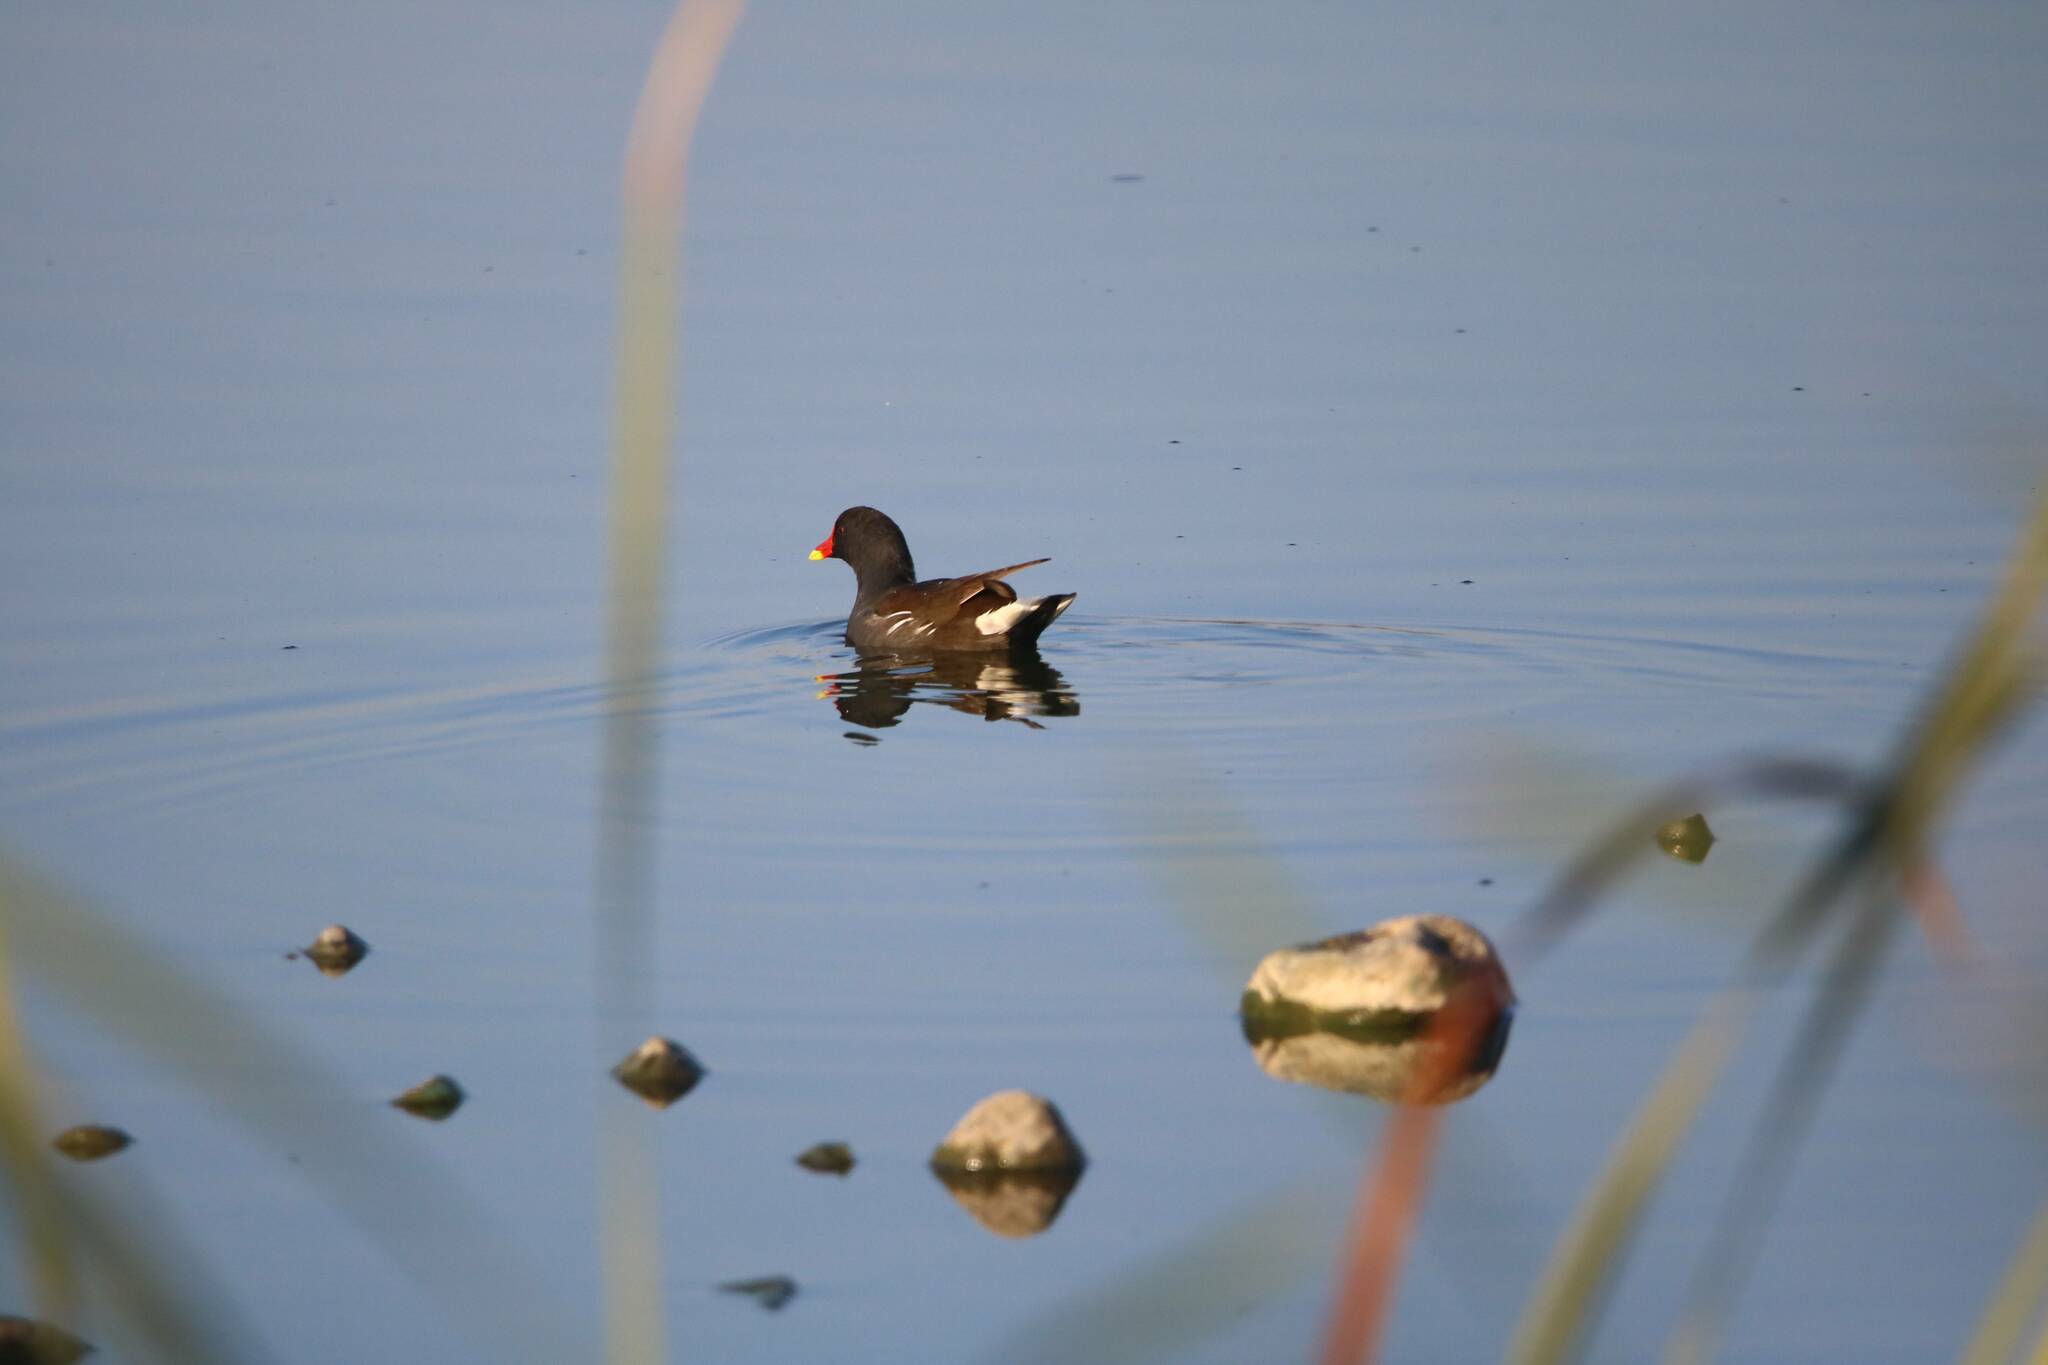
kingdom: Animalia
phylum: Chordata
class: Aves
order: Gruiformes
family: Rallidae
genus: Gallinula
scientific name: Gallinula chloropus
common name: Common moorhen
